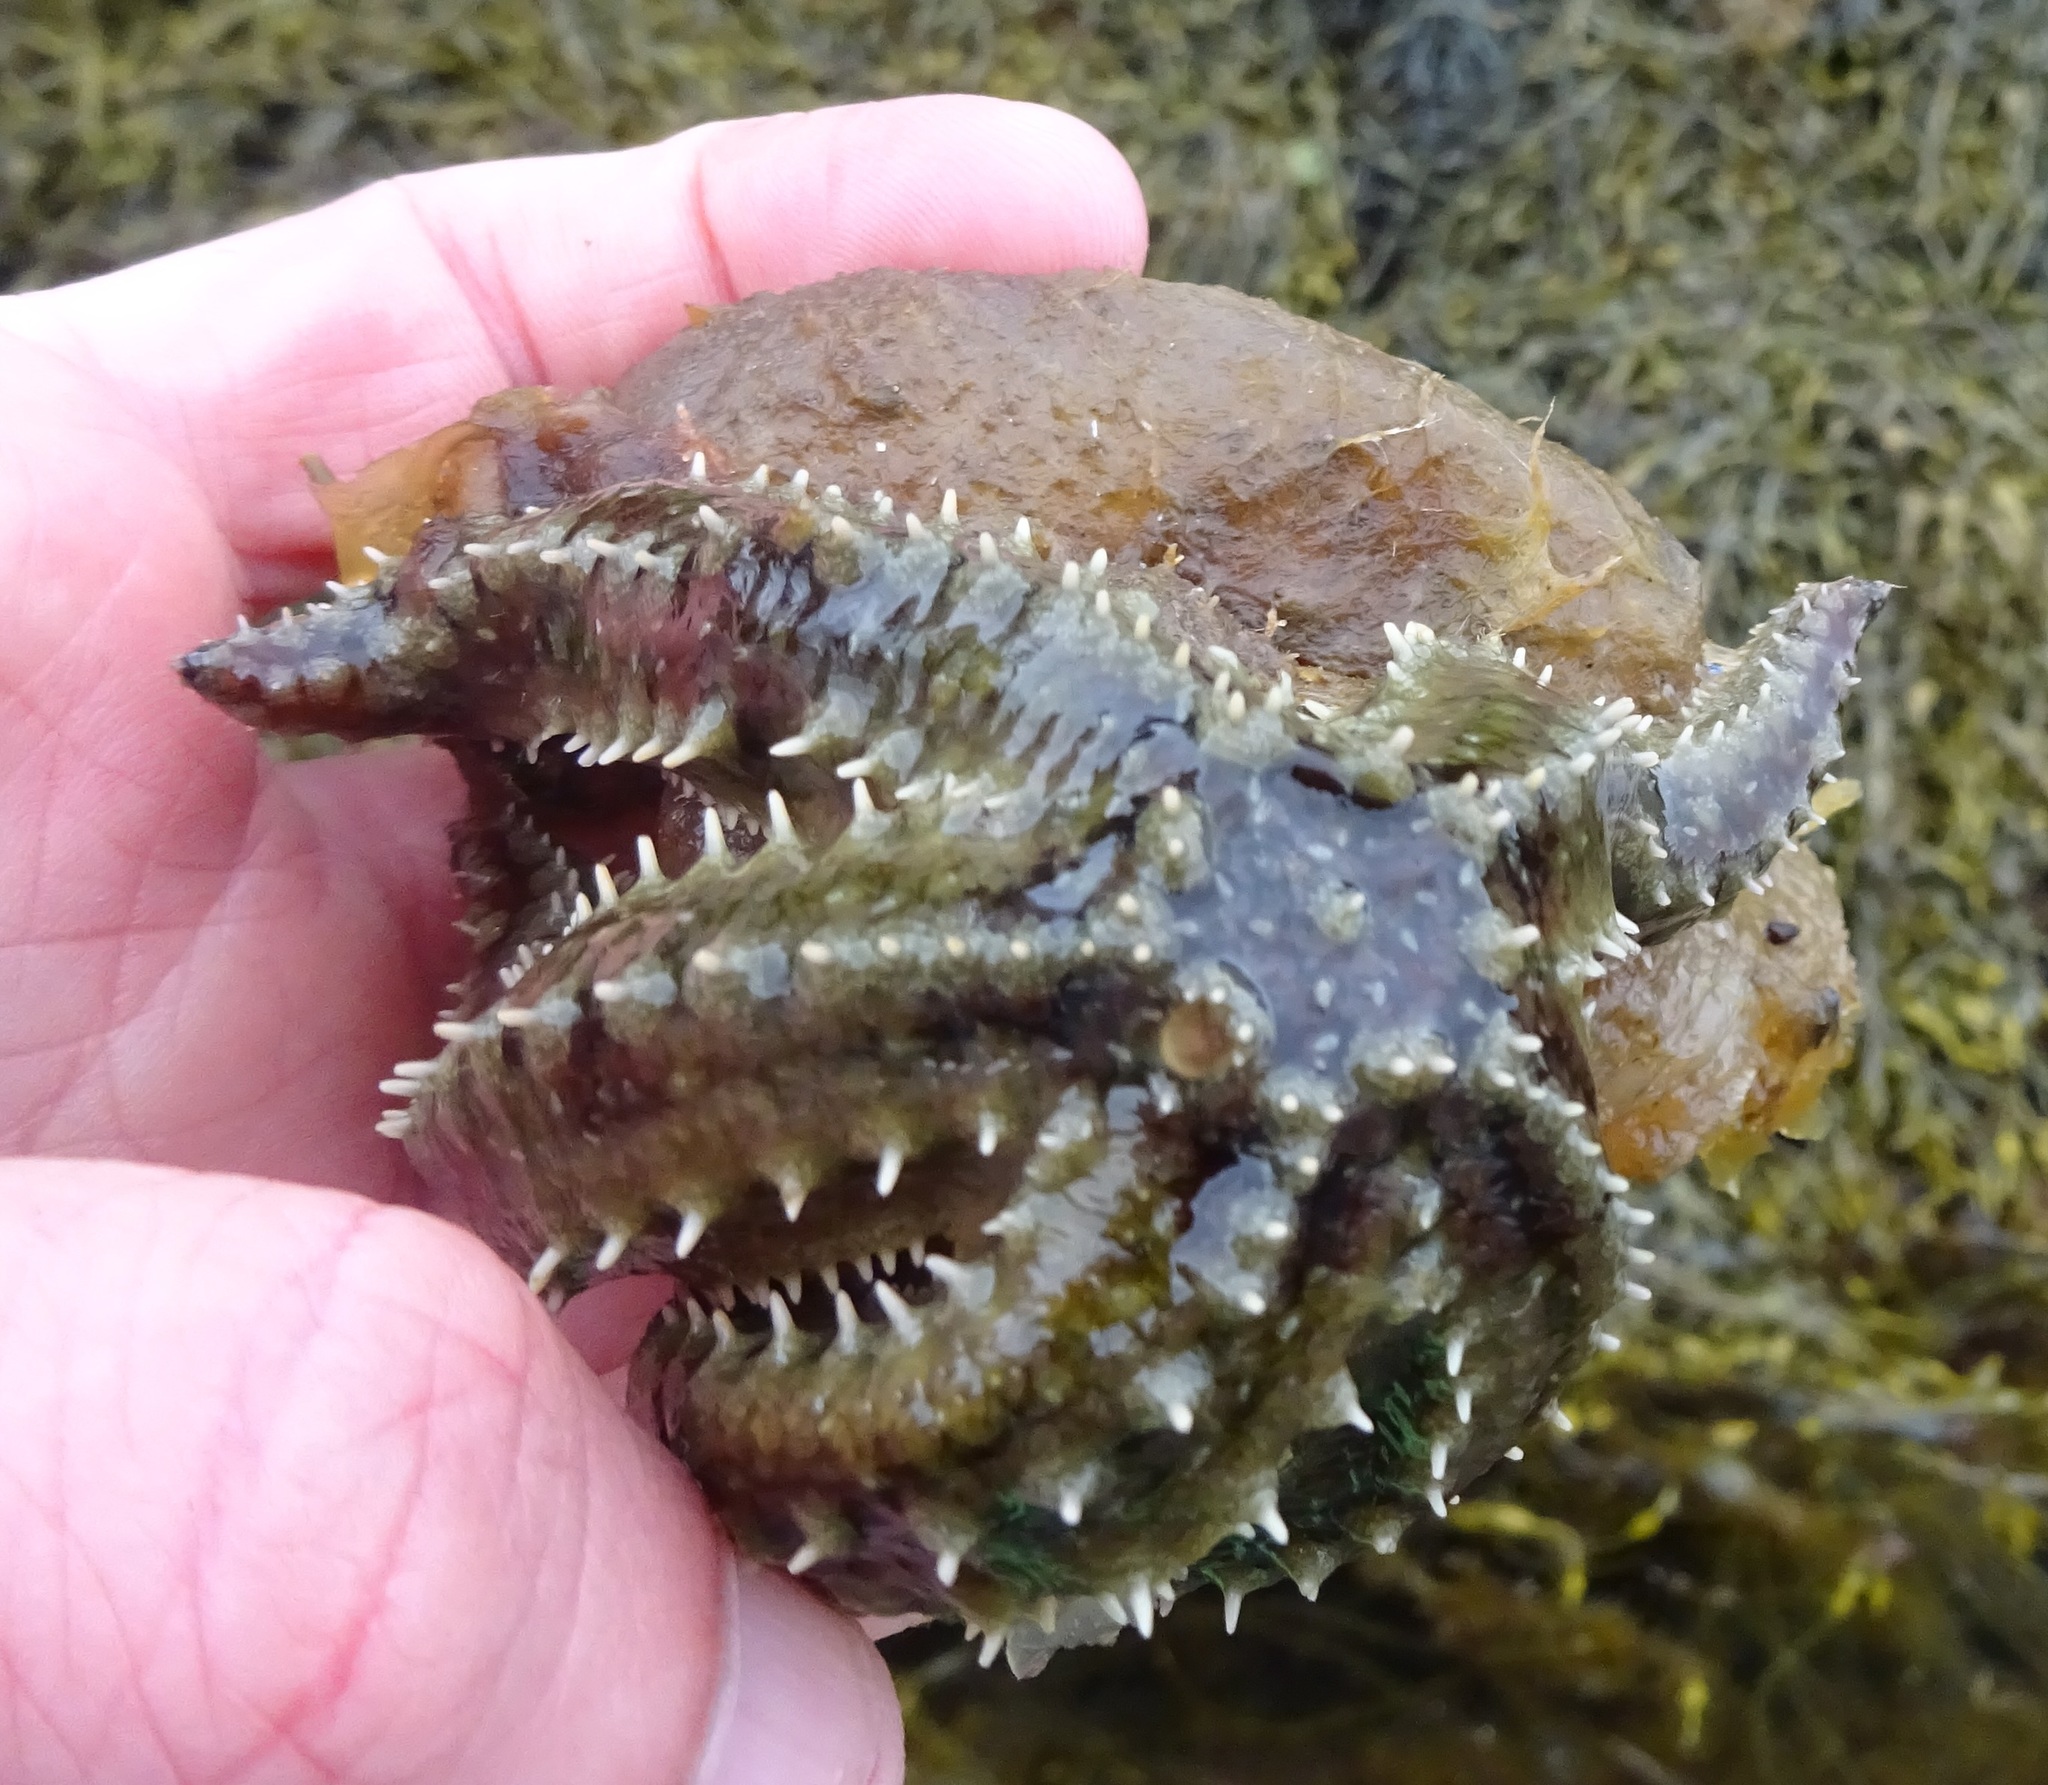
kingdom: Animalia
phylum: Echinodermata
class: Asteroidea
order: Forcipulatida
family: Asteriidae
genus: Marthasterias
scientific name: Marthasterias glacialis
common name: Spiny starfish
